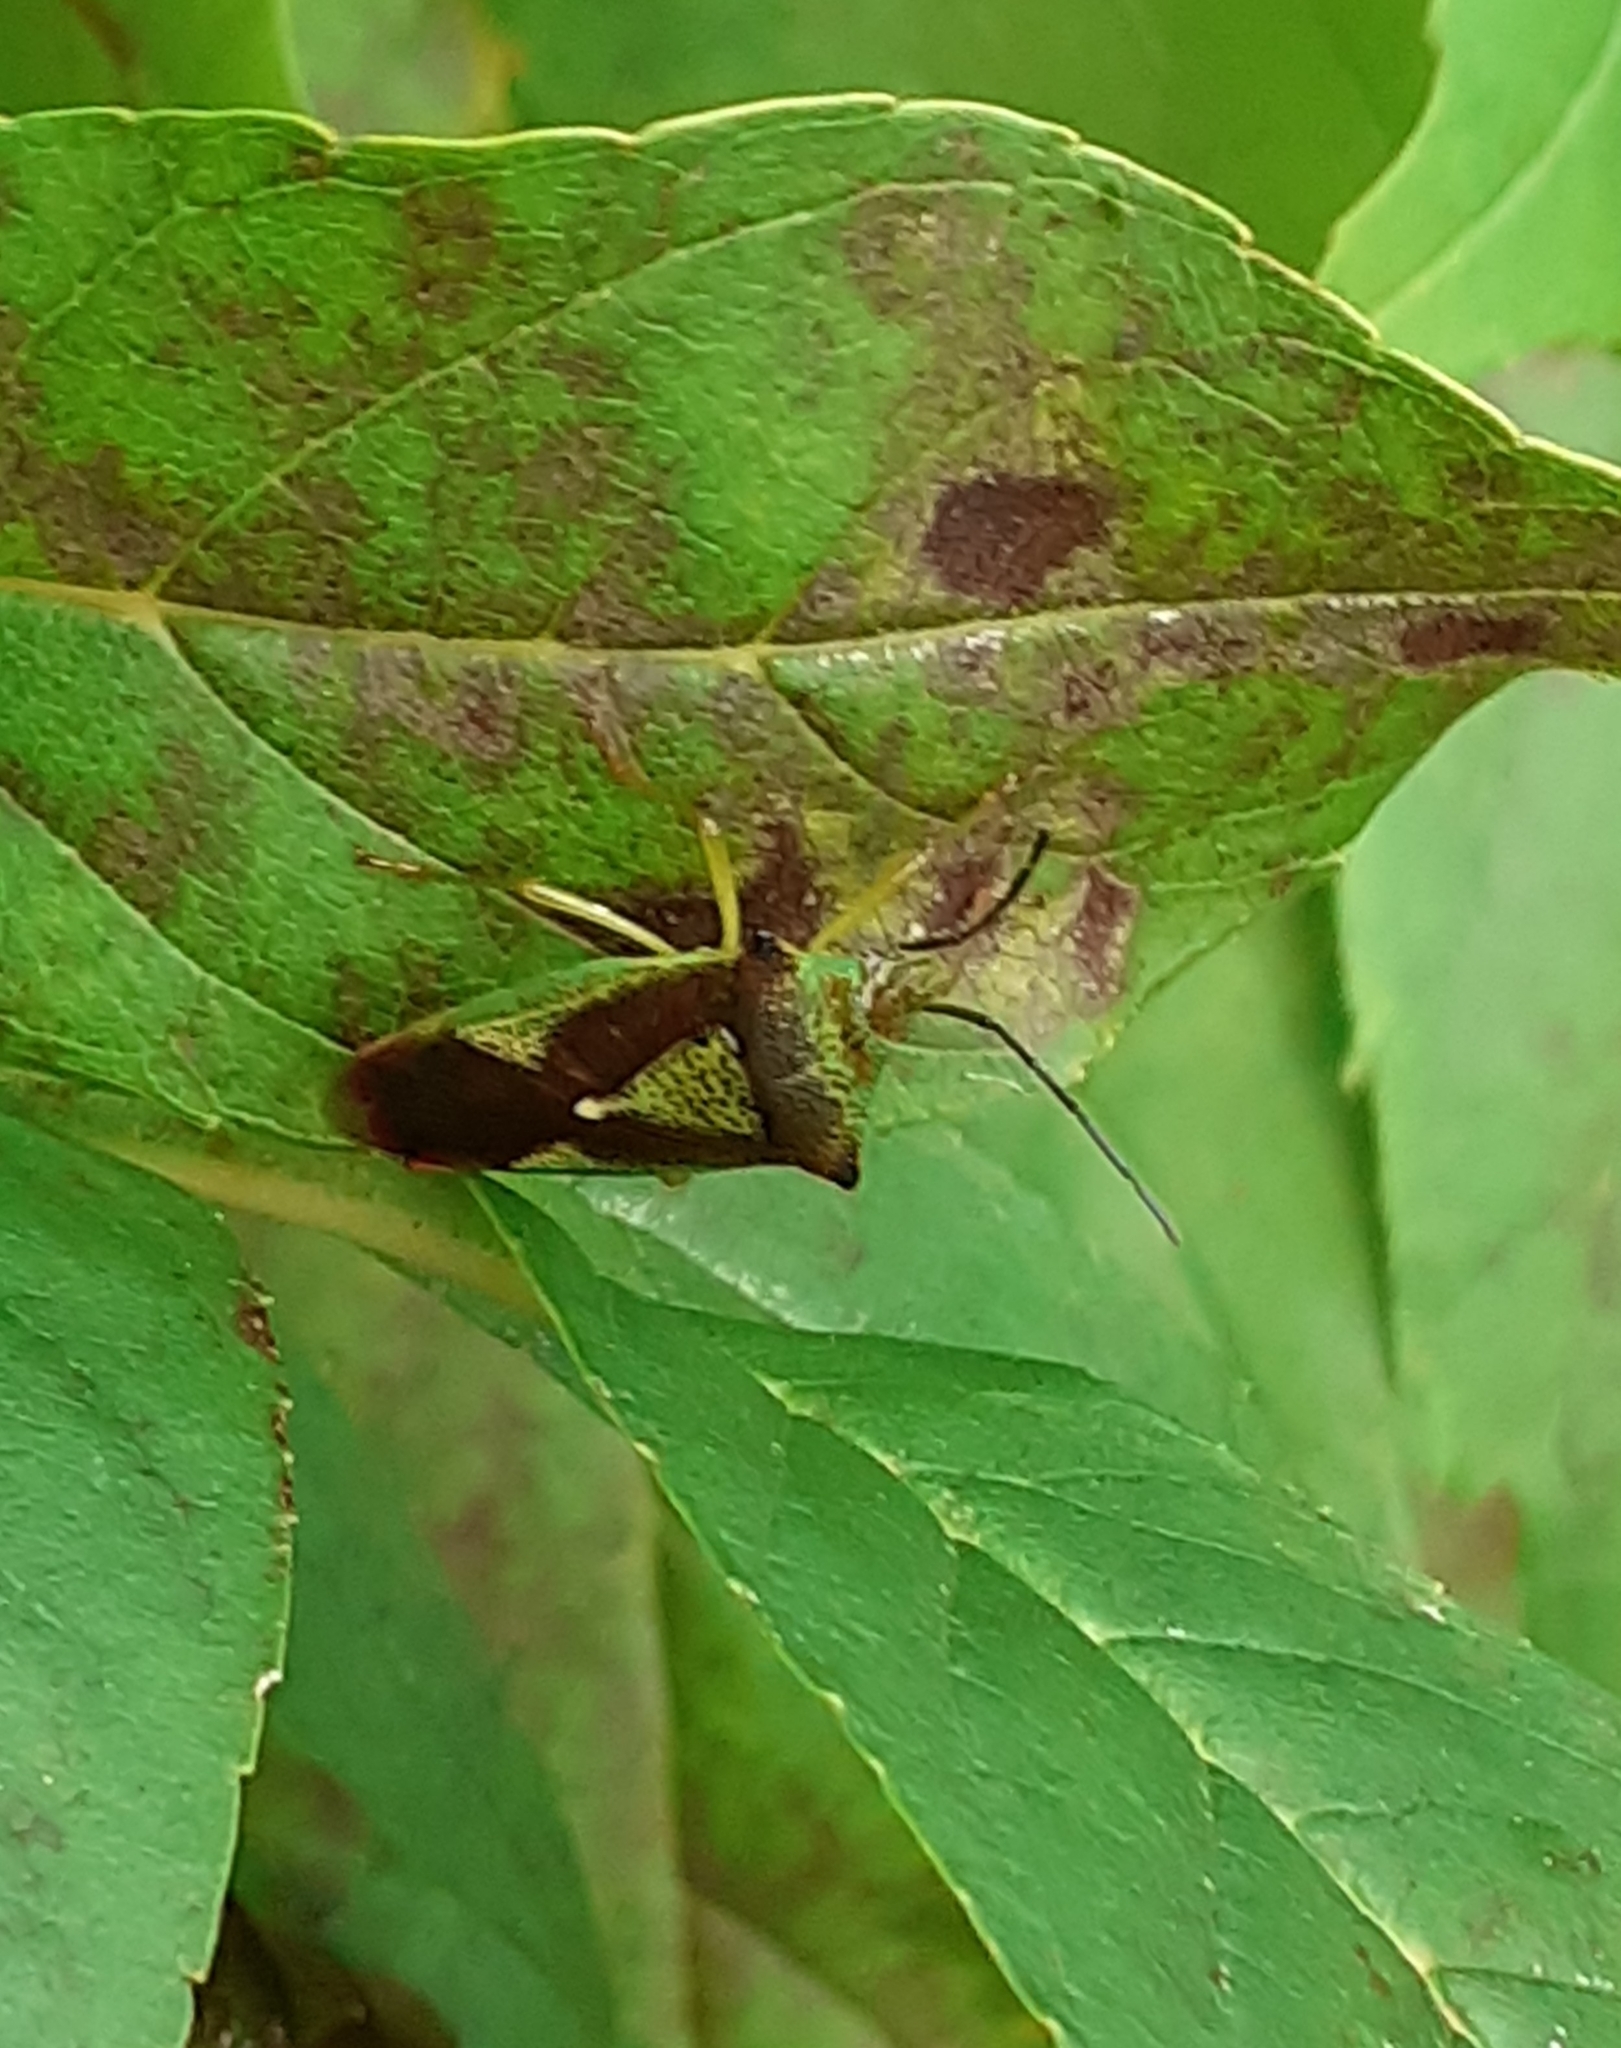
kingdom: Animalia
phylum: Arthropoda
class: Insecta
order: Hemiptera
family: Acanthosomatidae
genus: Acanthosoma
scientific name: Acanthosoma haemorrhoidale
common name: Hawthorn shieldbug
